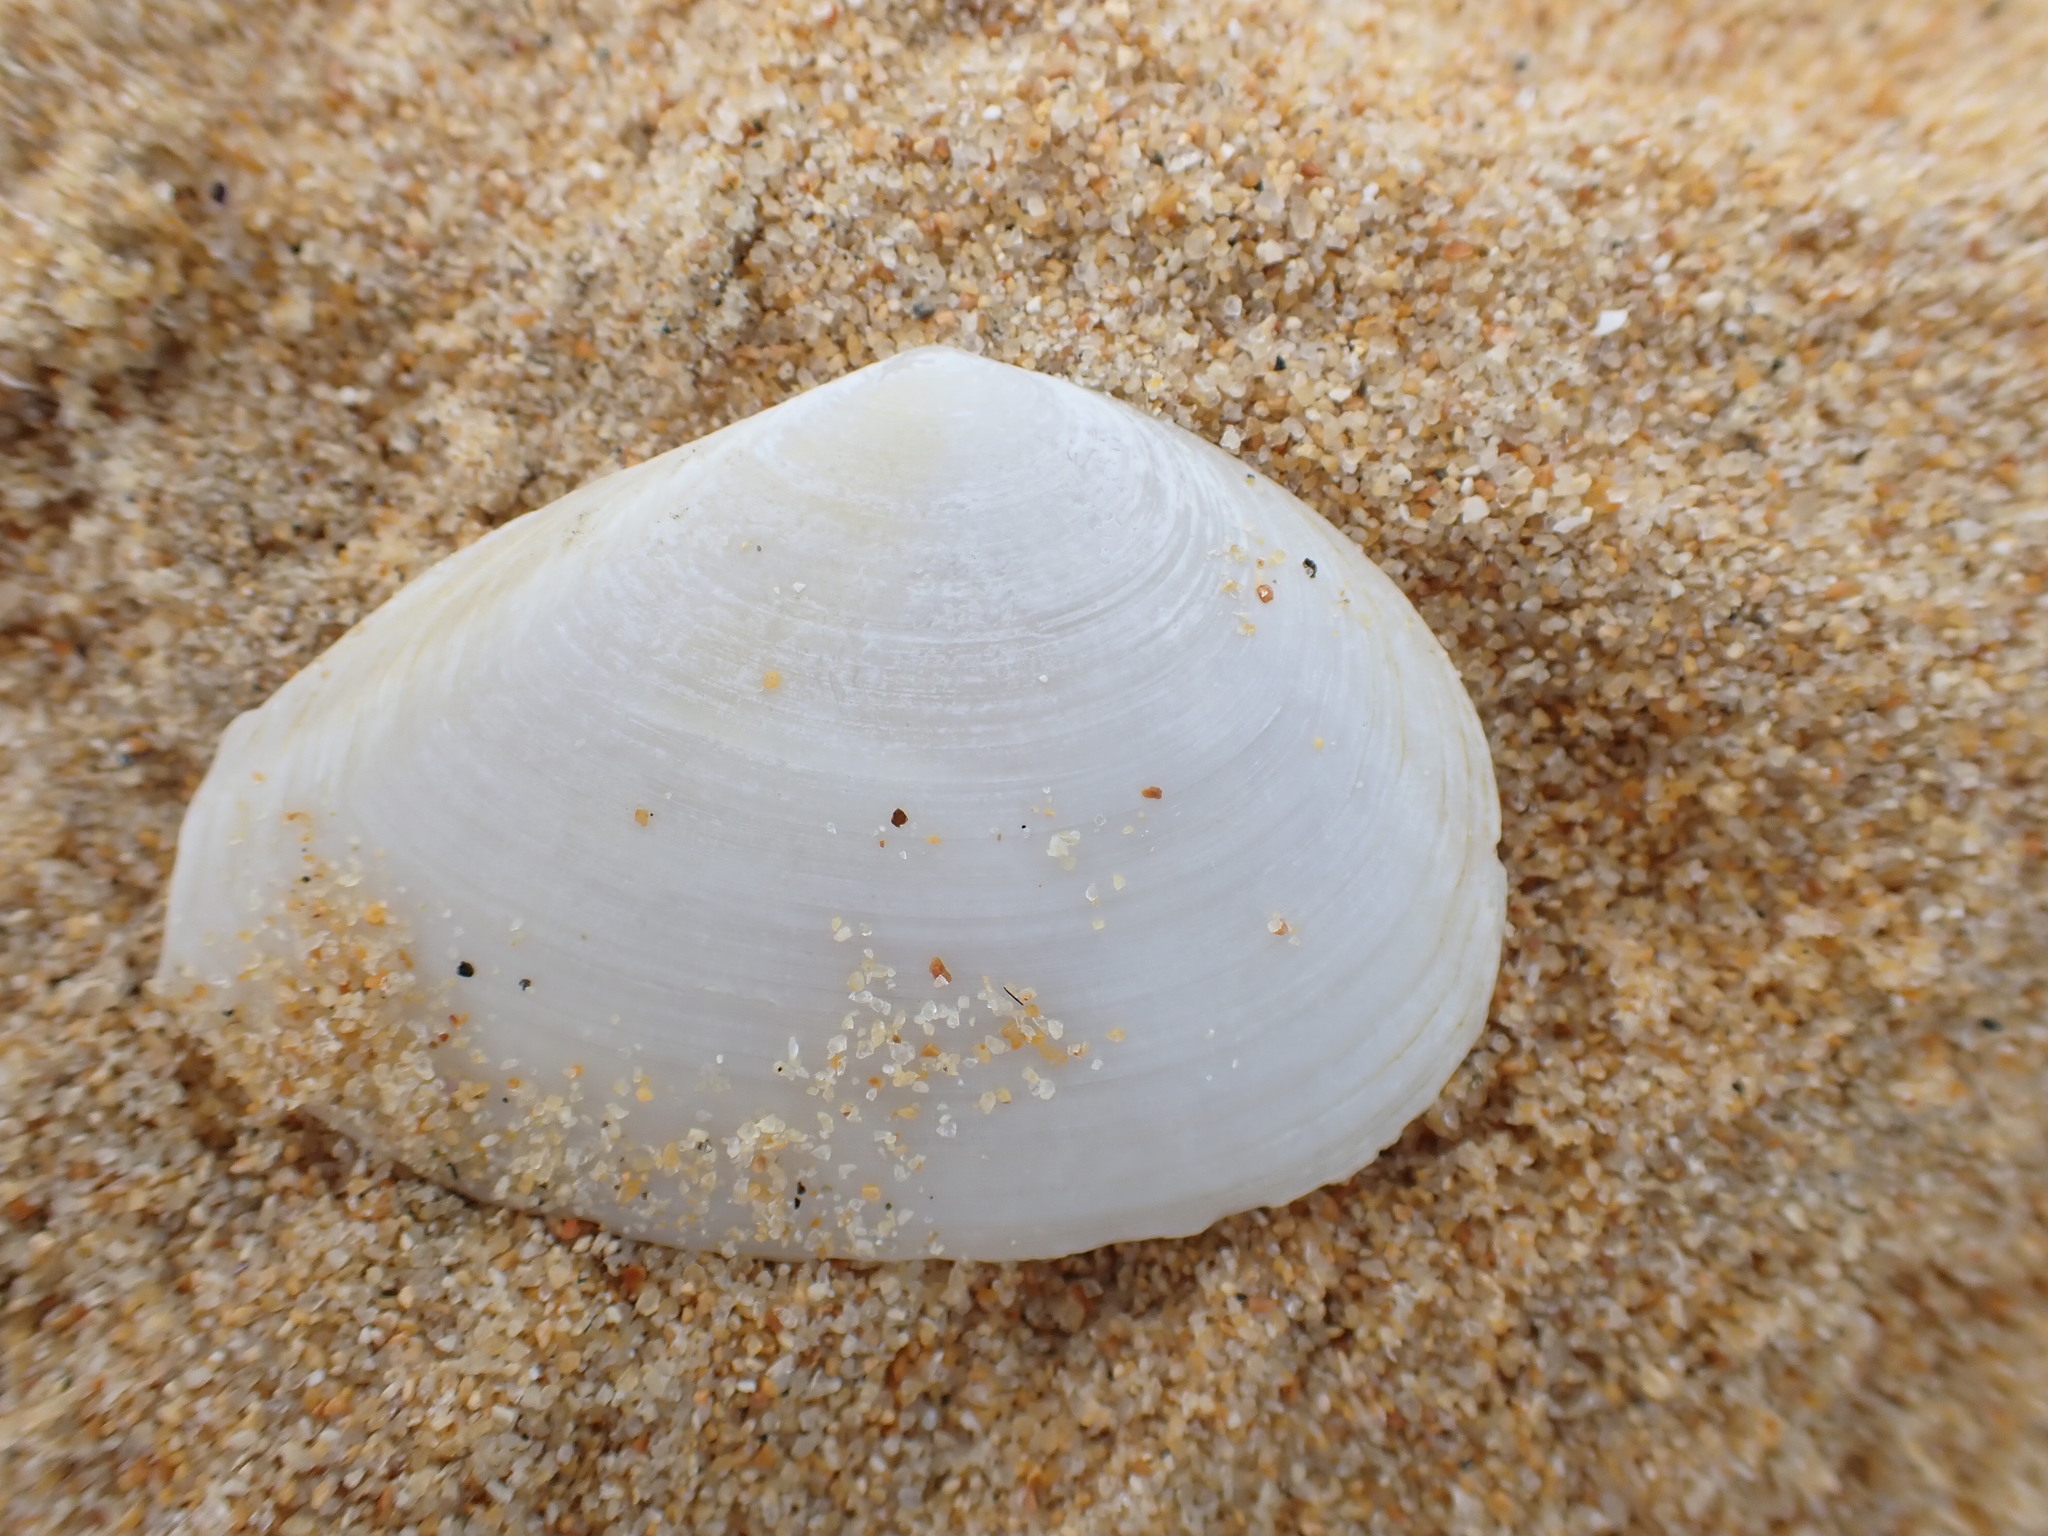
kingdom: Animalia
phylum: Mollusca
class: Bivalvia
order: Cardiida
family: Tellinidae
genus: Bartschicoma
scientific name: Bartschicoma gaimardi
